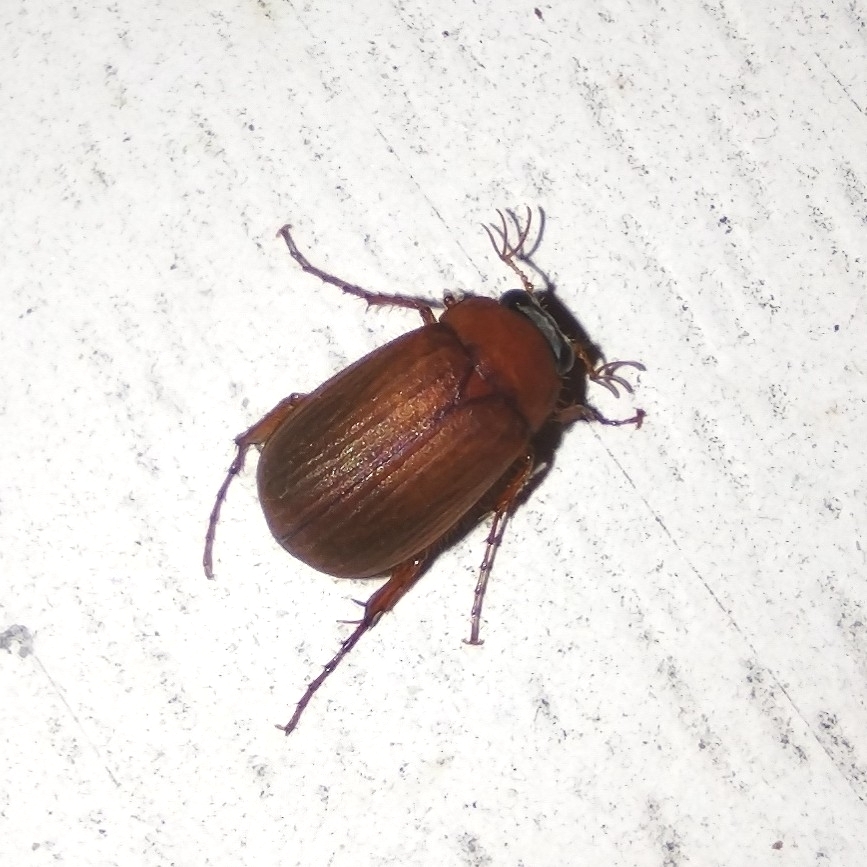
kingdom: Animalia
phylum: Arthropoda
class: Insecta
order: Coleoptera
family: Scarabaeidae
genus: Serica
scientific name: Serica brunnea
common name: Brown chafer
